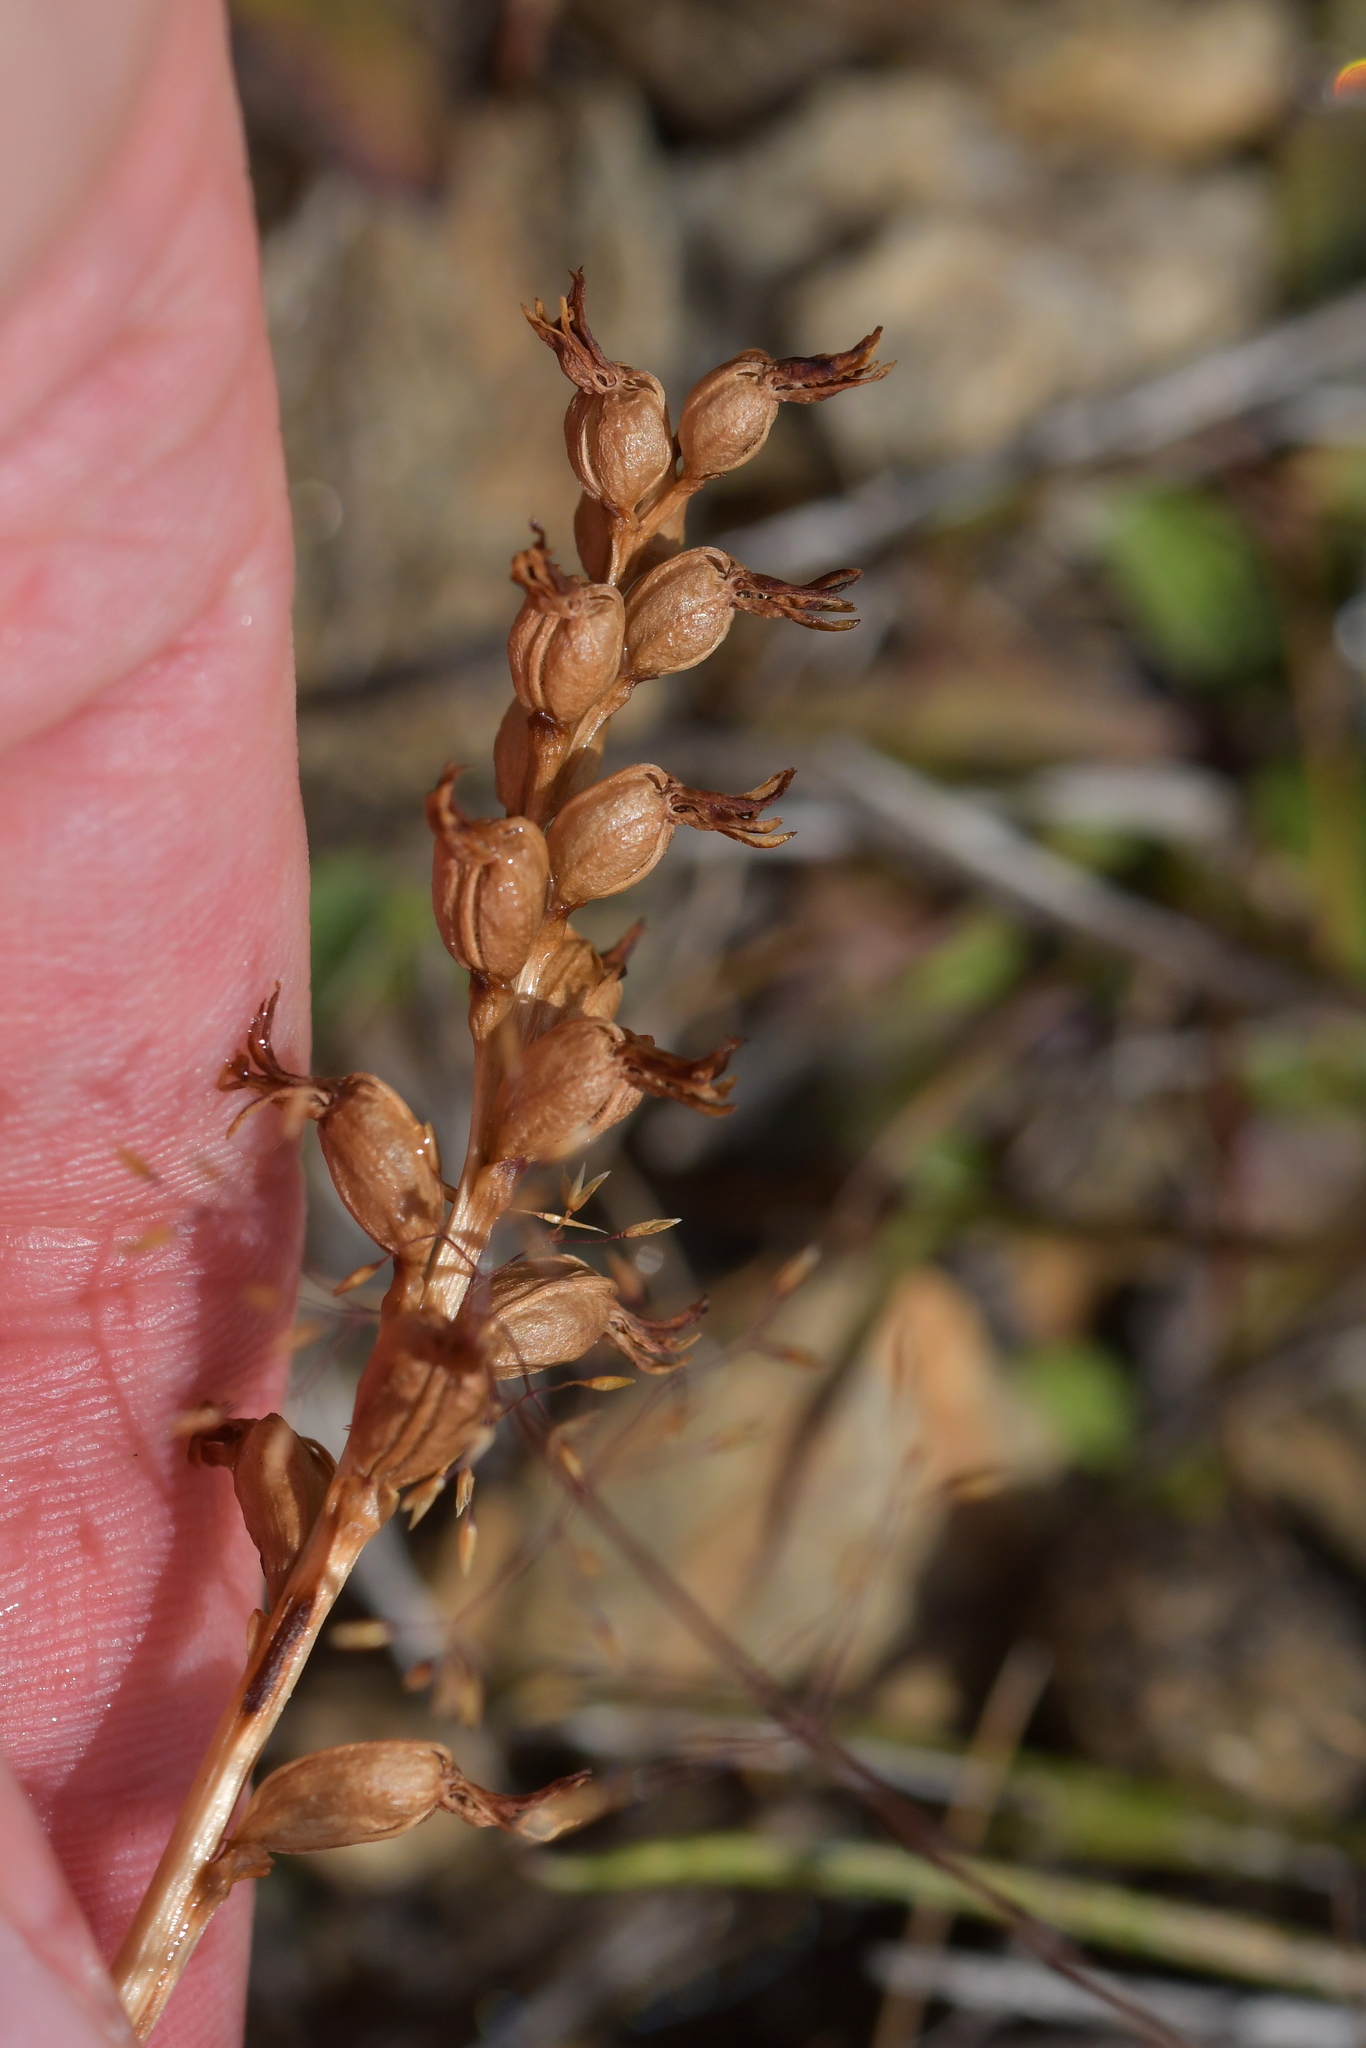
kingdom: Plantae
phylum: Tracheophyta
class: Liliopsida
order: Asparagales
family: Orchidaceae
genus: Prasophyllum
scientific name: Prasophyllum colensoi
